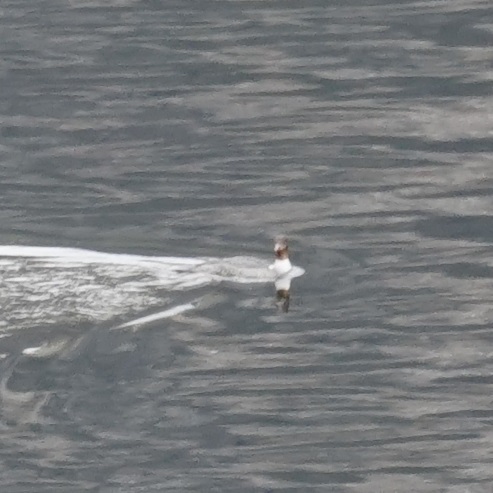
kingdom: Animalia
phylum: Chordata
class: Aves
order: Anseriformes
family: Anatidae
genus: Mergus
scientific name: Mergus merganser
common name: Common merganser
